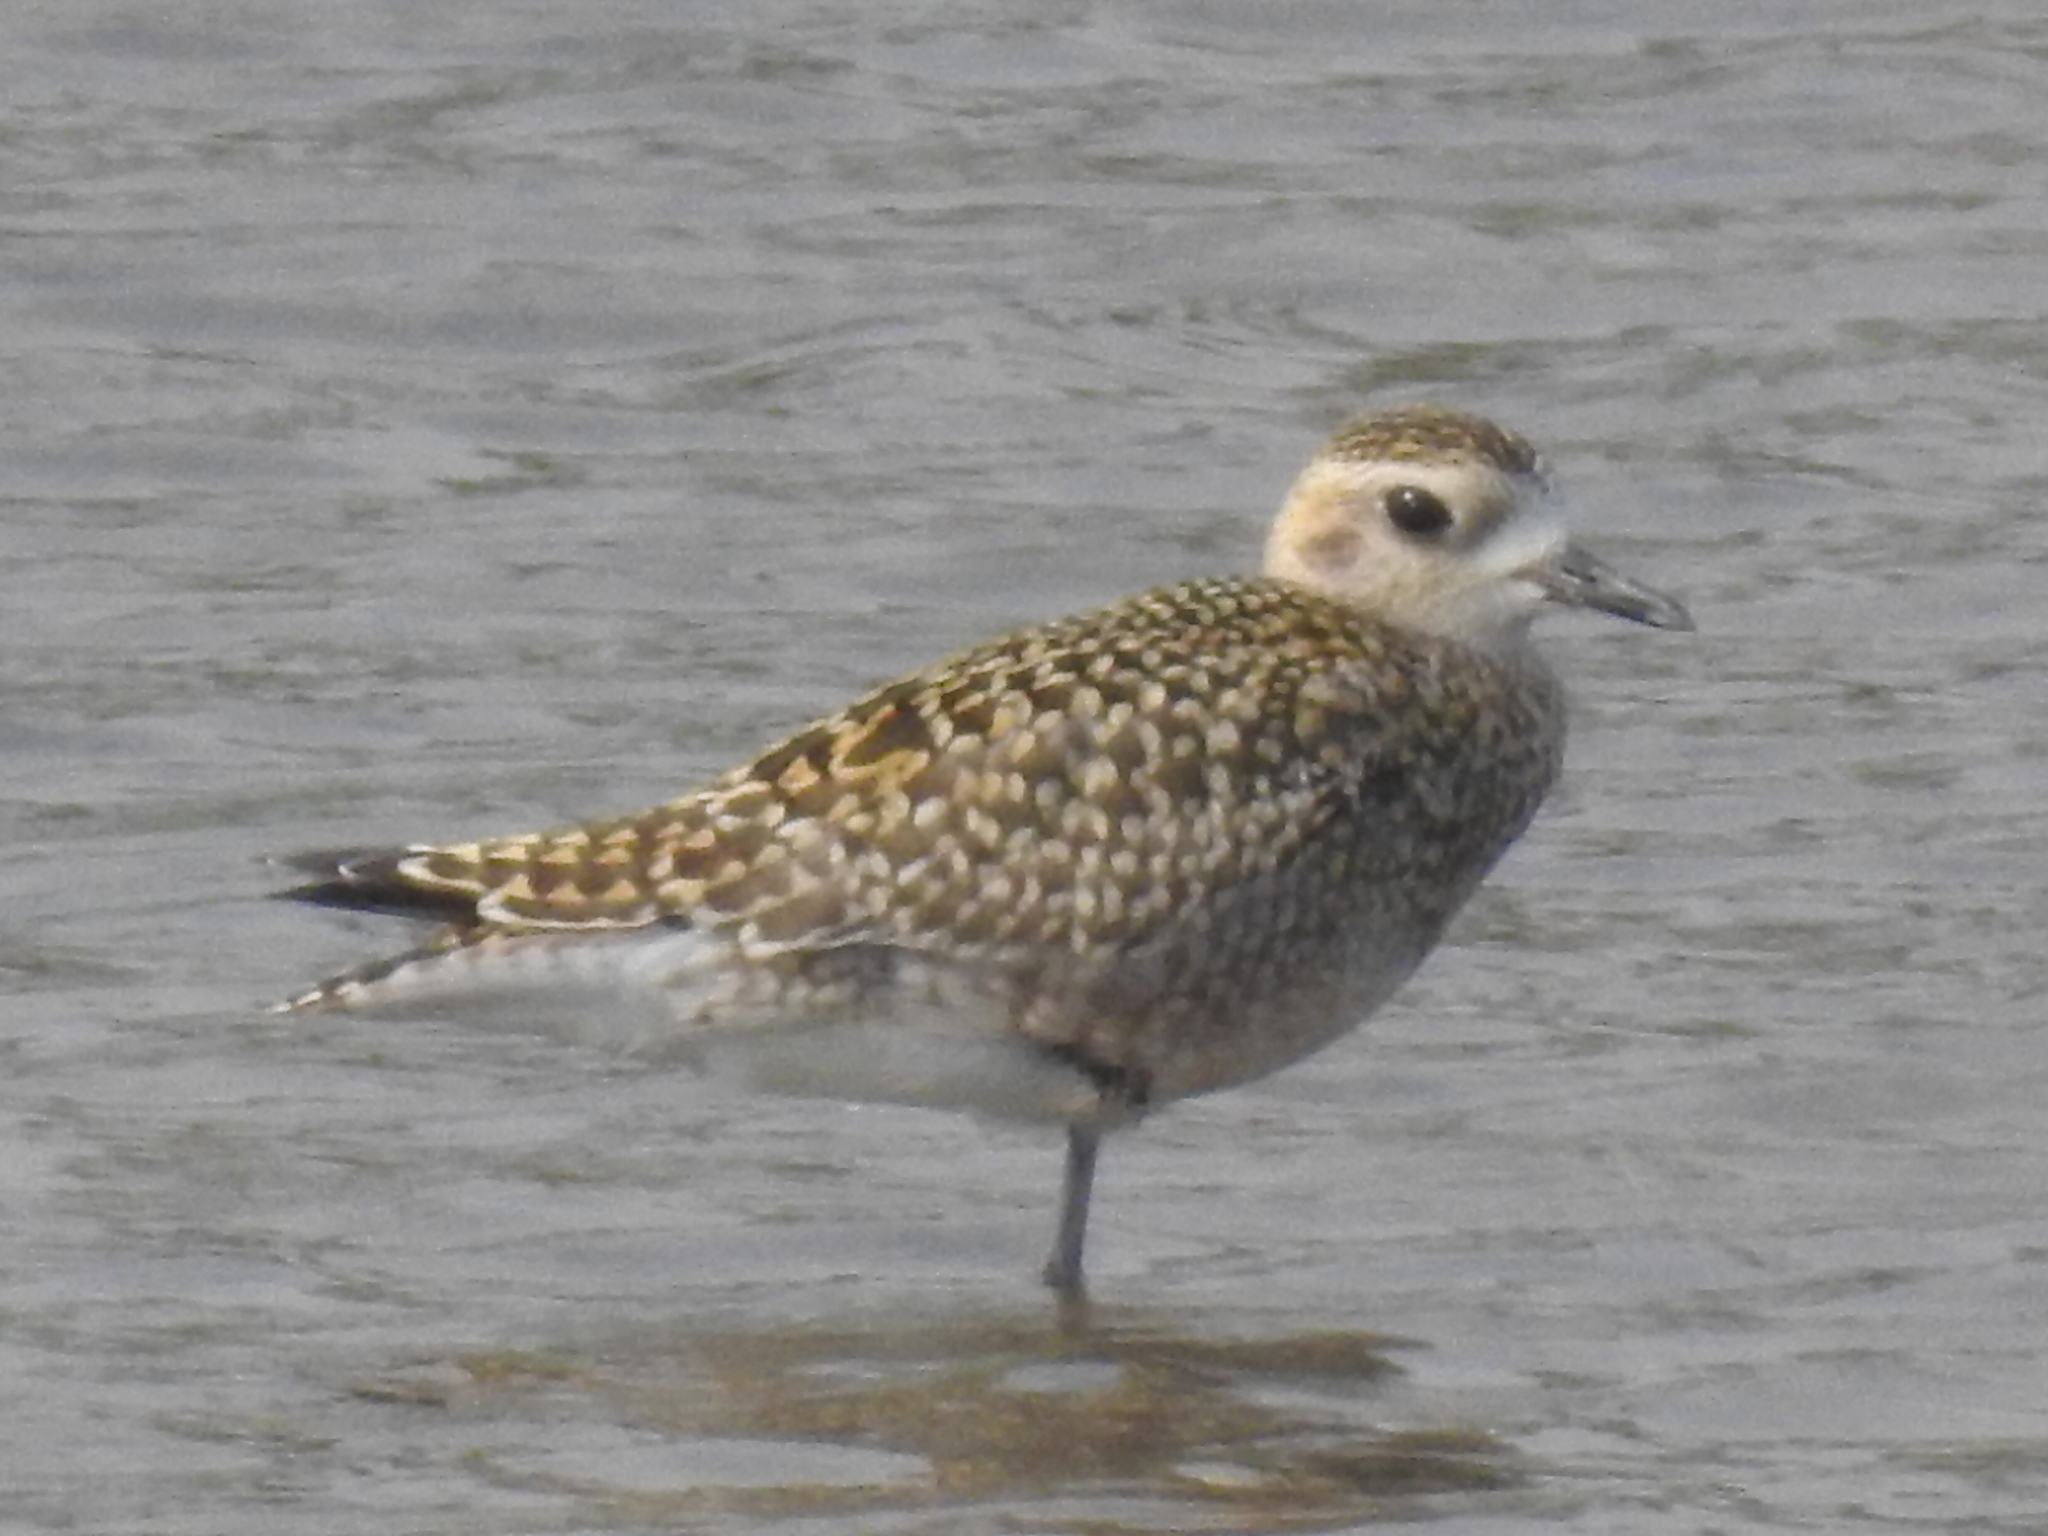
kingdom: Animalia
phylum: Chordata
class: Aves
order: Charadriiformes
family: Charadriidae
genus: Pluvialis
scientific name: Pluvialis fulva
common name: Pacific golden plover
